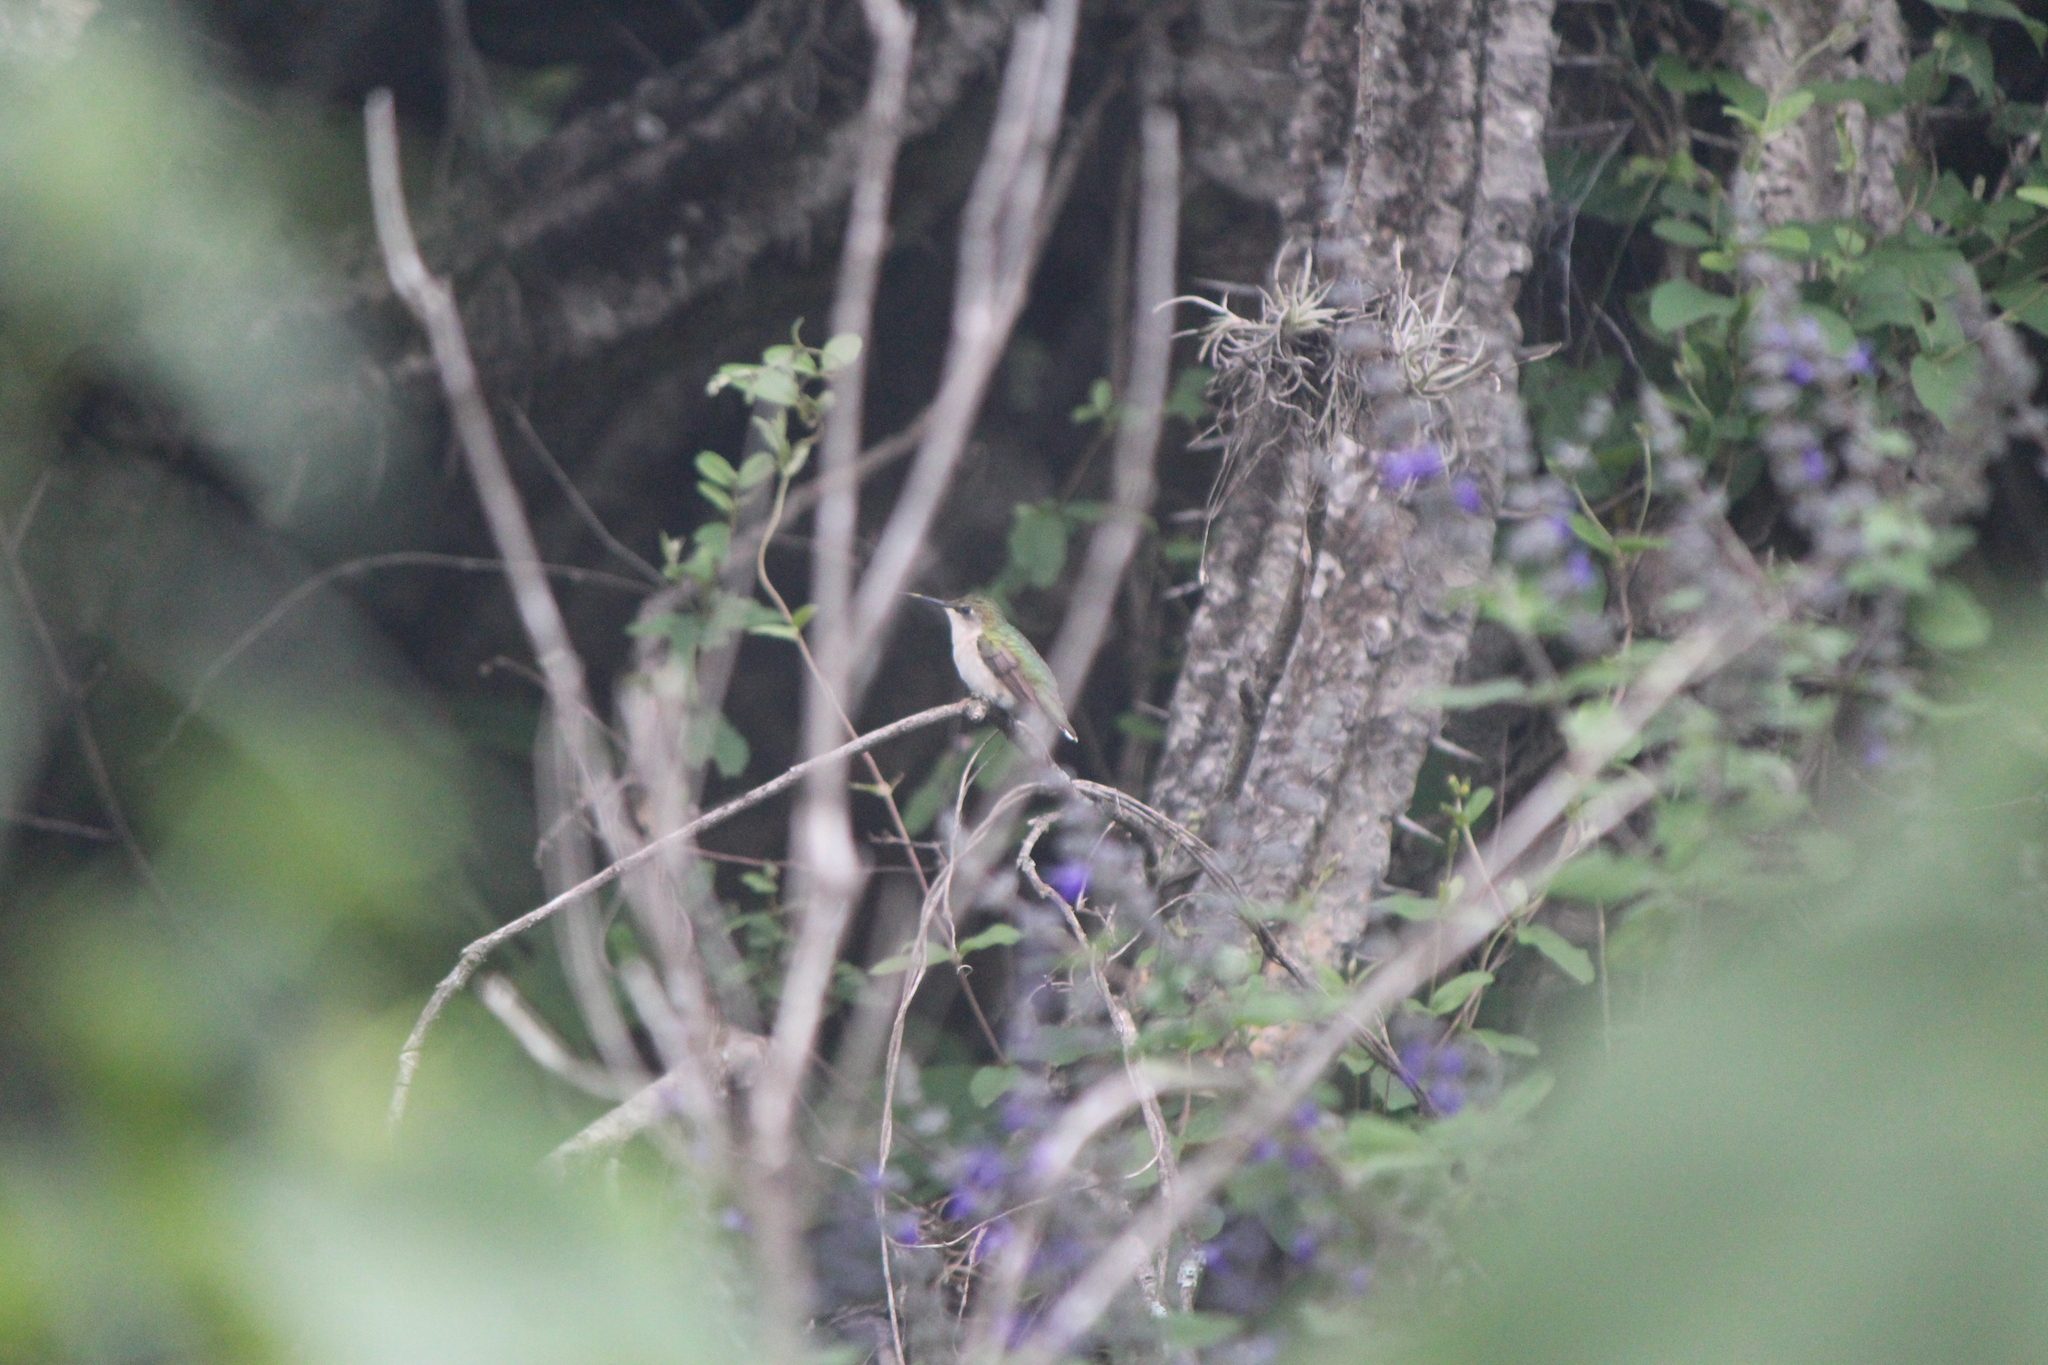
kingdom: Animalia
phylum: Chordata
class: Aves
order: Apodiformes
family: Trochilidae
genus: Archilochus
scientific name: Archilochus colubris
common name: Ruby-throated hummingbird
